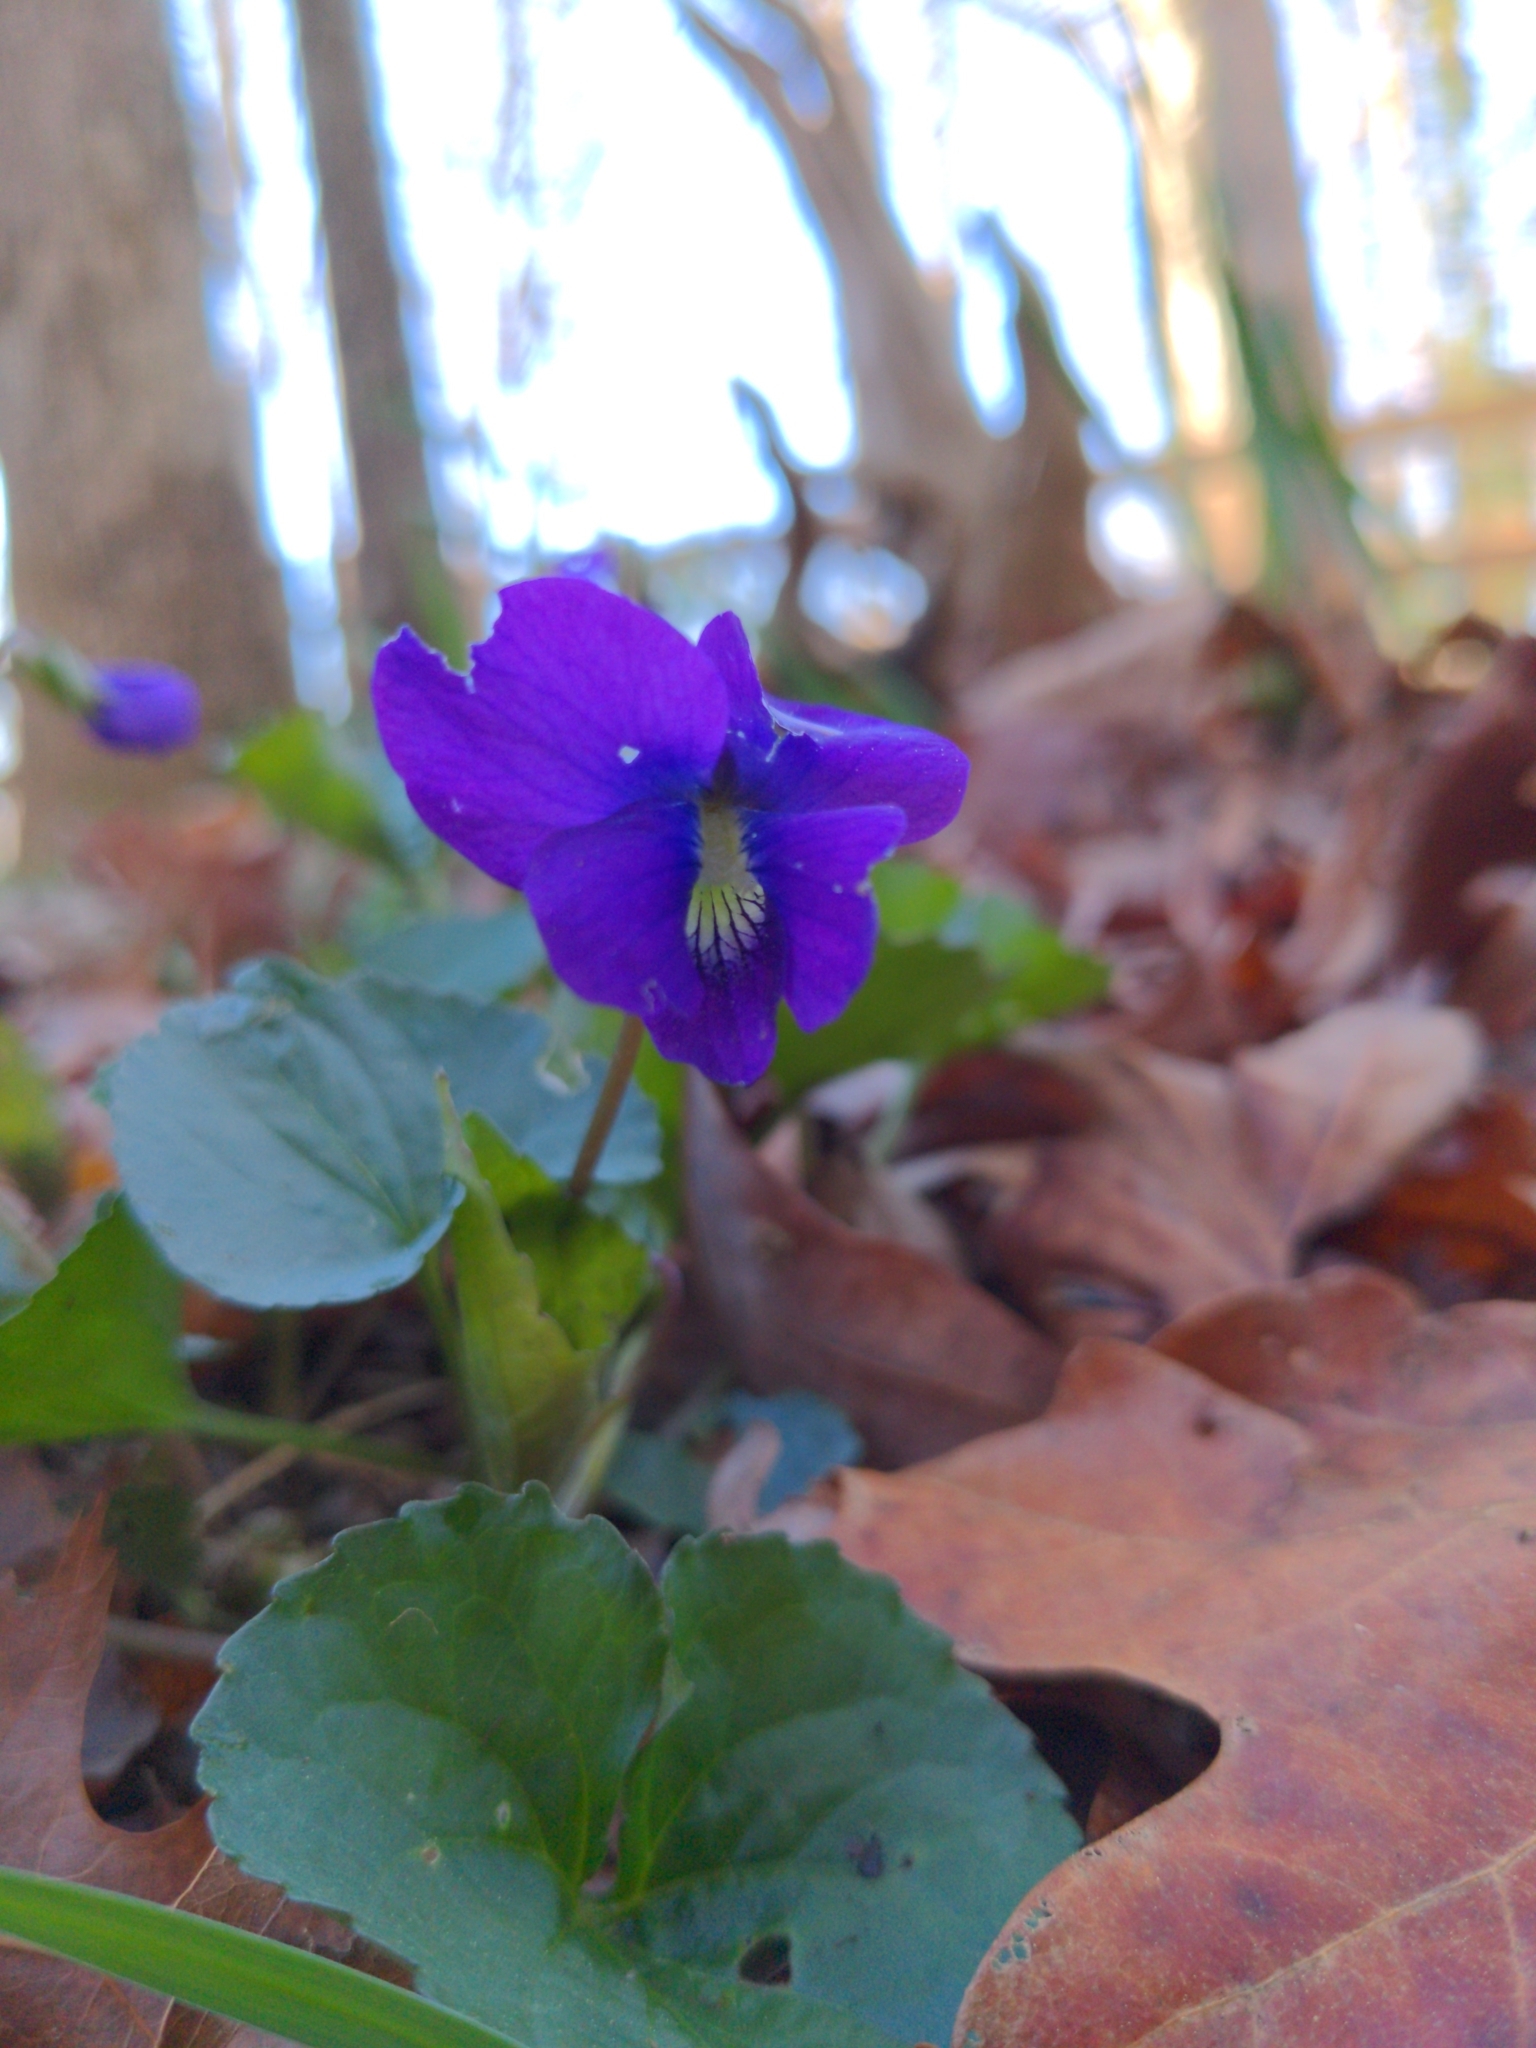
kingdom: Plantae
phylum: Tracheophyta
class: Magnoliopsida
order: Malpighiales
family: Violaceae
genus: Viola
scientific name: Viola sororia
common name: Dooryard violet
